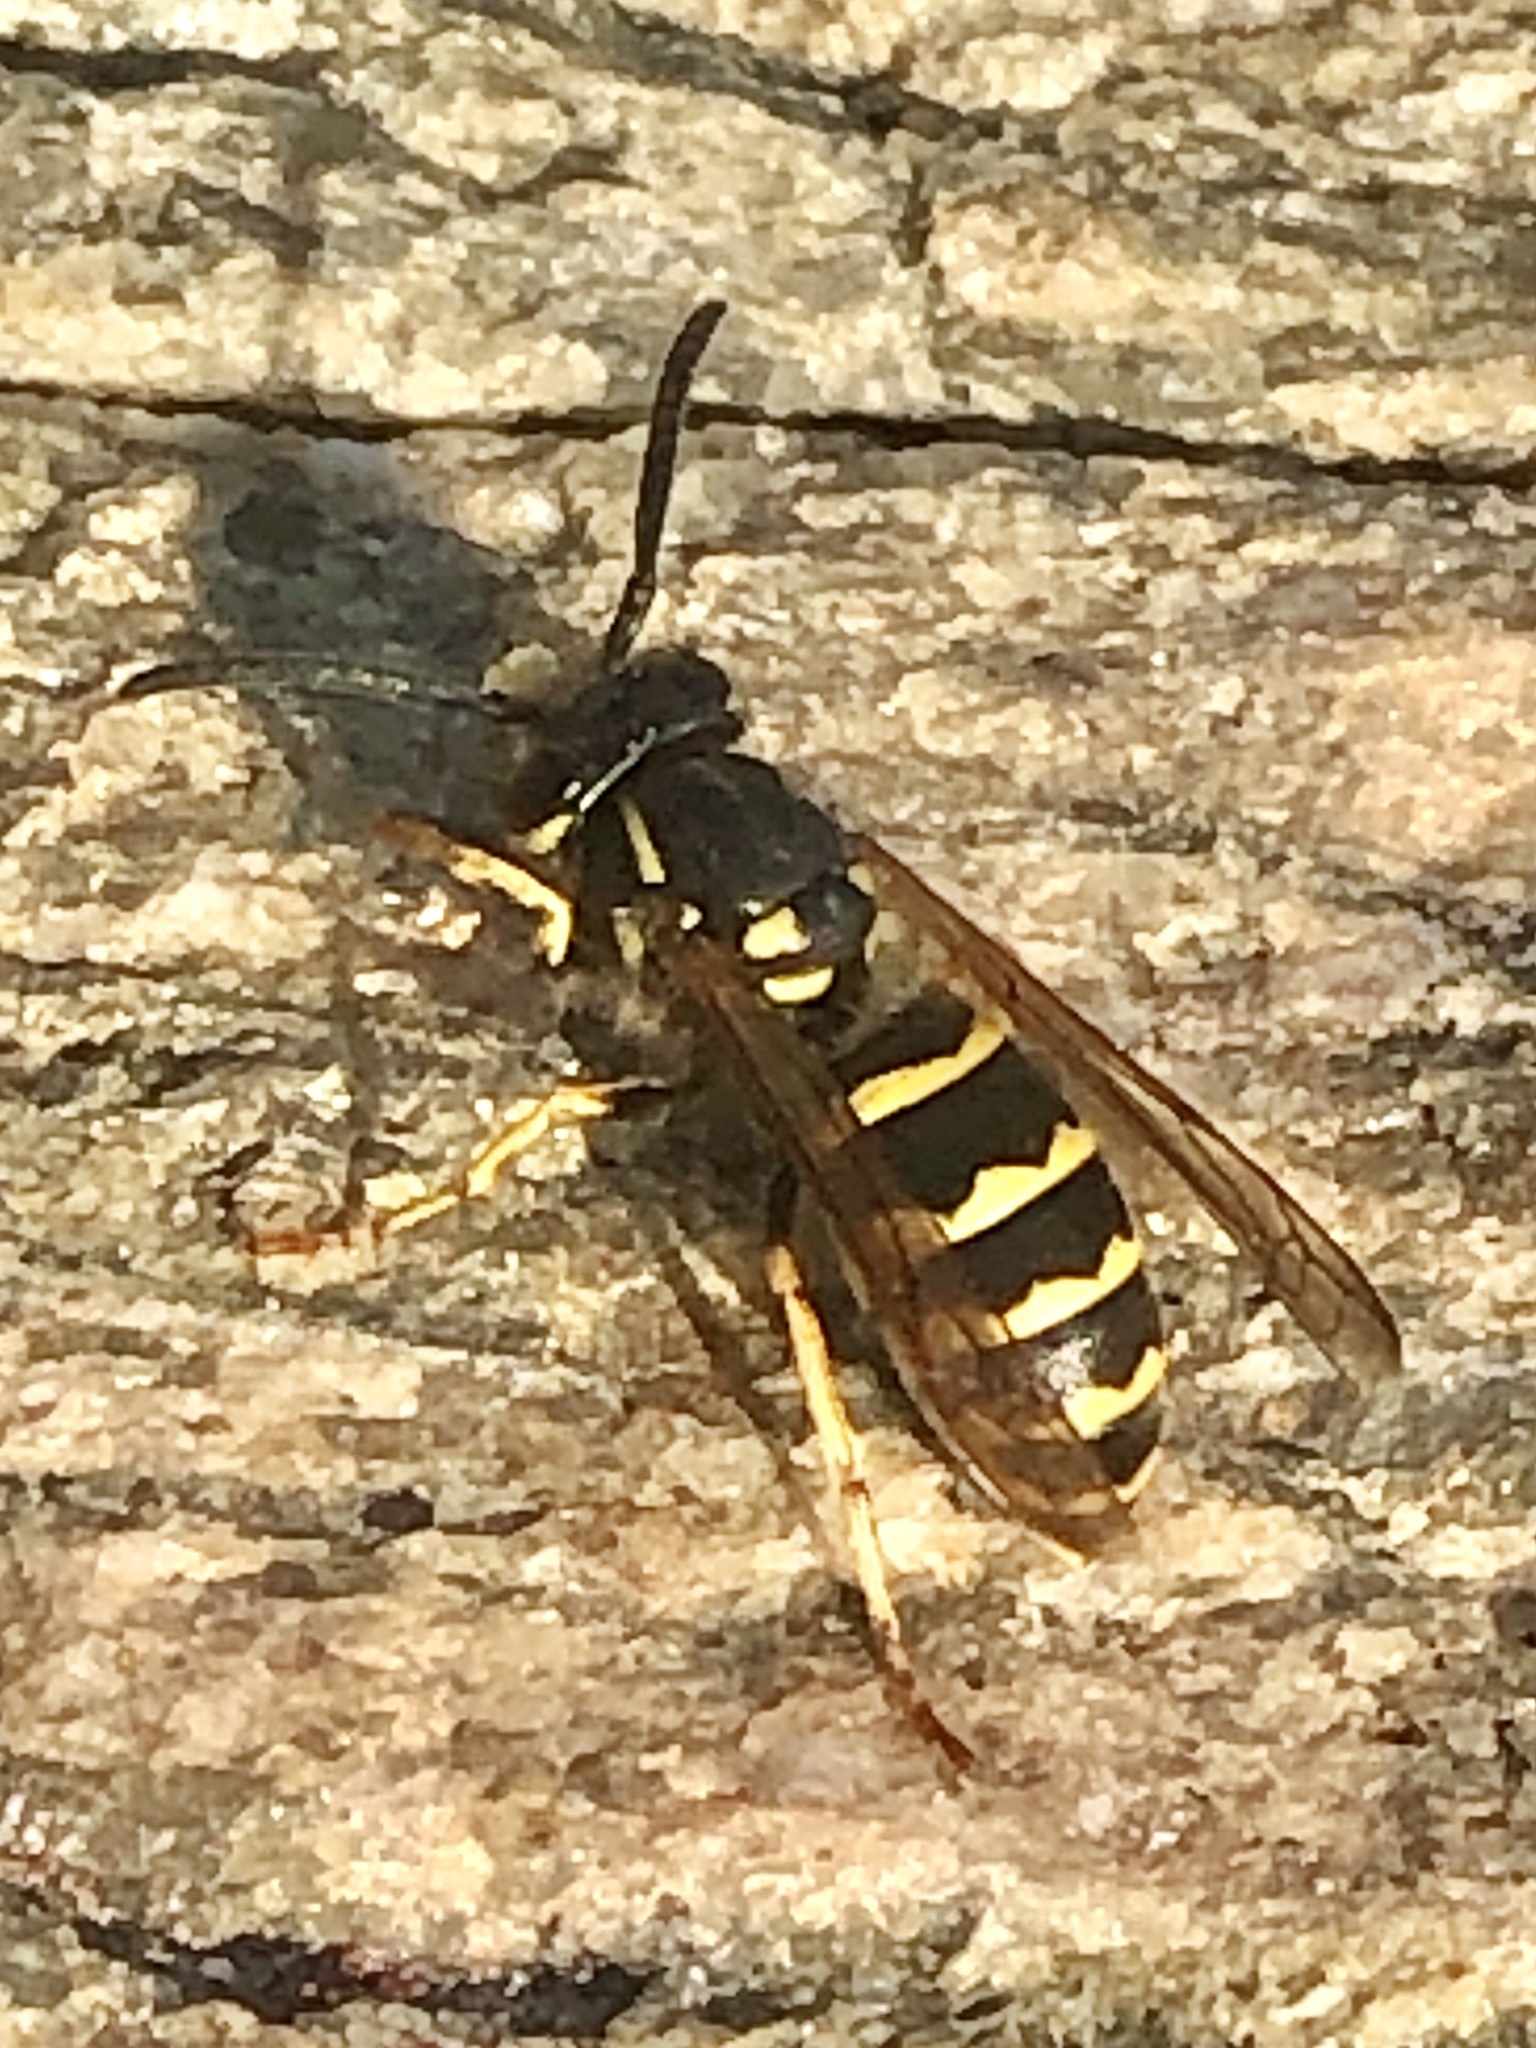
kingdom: Animalia
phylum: Arthropoda
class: Insecta
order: Hymenoptera
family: Vespidae
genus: Vespula
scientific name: Vespula alascensis
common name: Alaska yellowjacket
